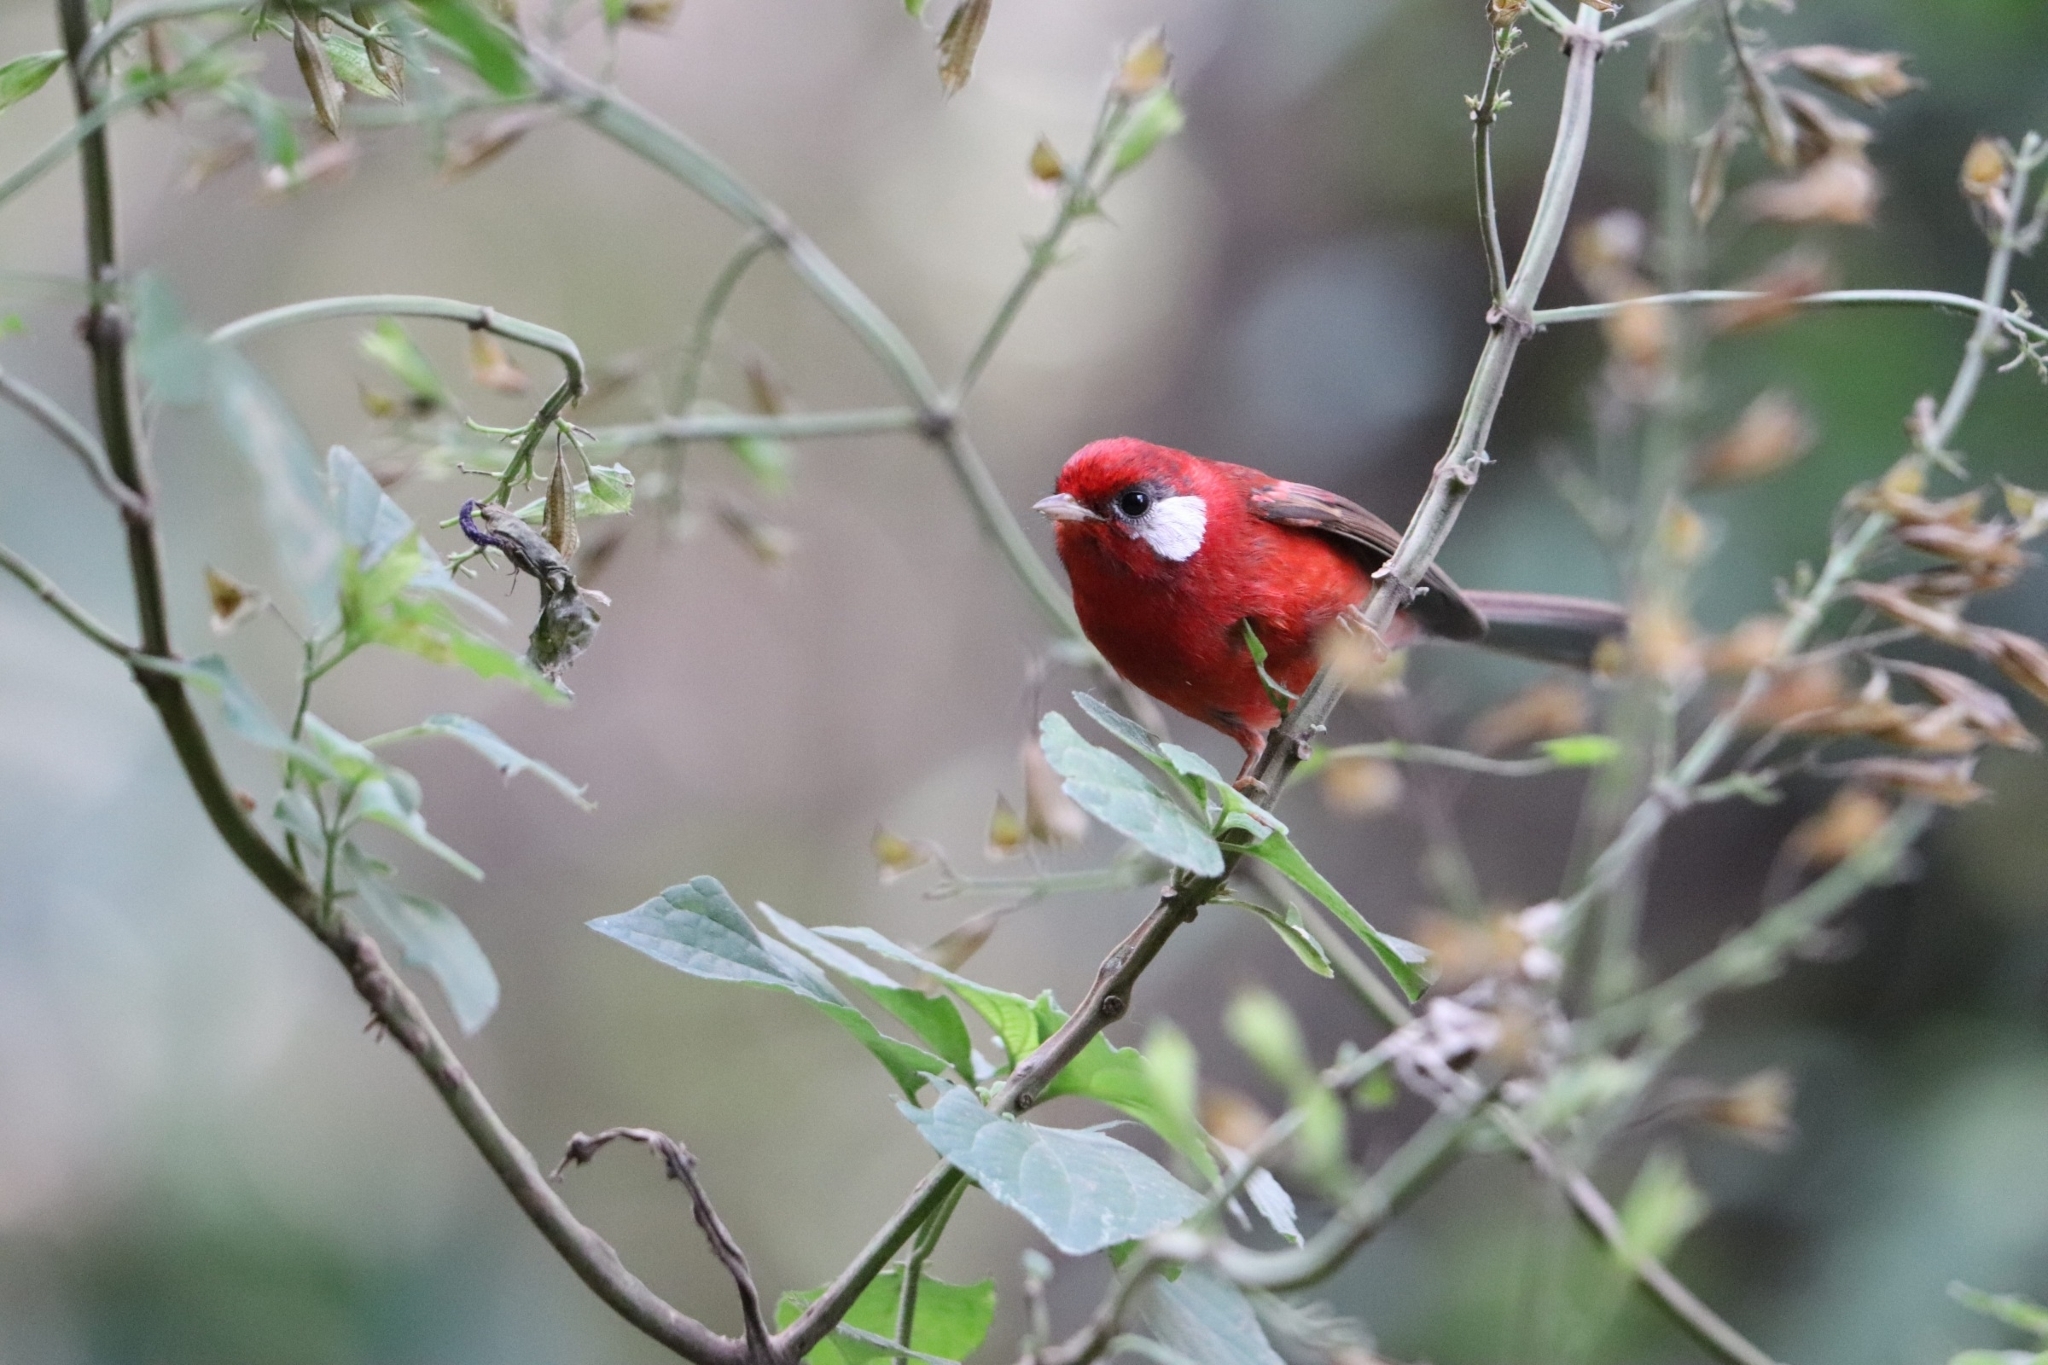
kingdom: Animalia
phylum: Chordata
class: Aves
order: Passeriformes
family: Parulidae
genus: Cardellina
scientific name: Cardellina rubra
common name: Red warbler
